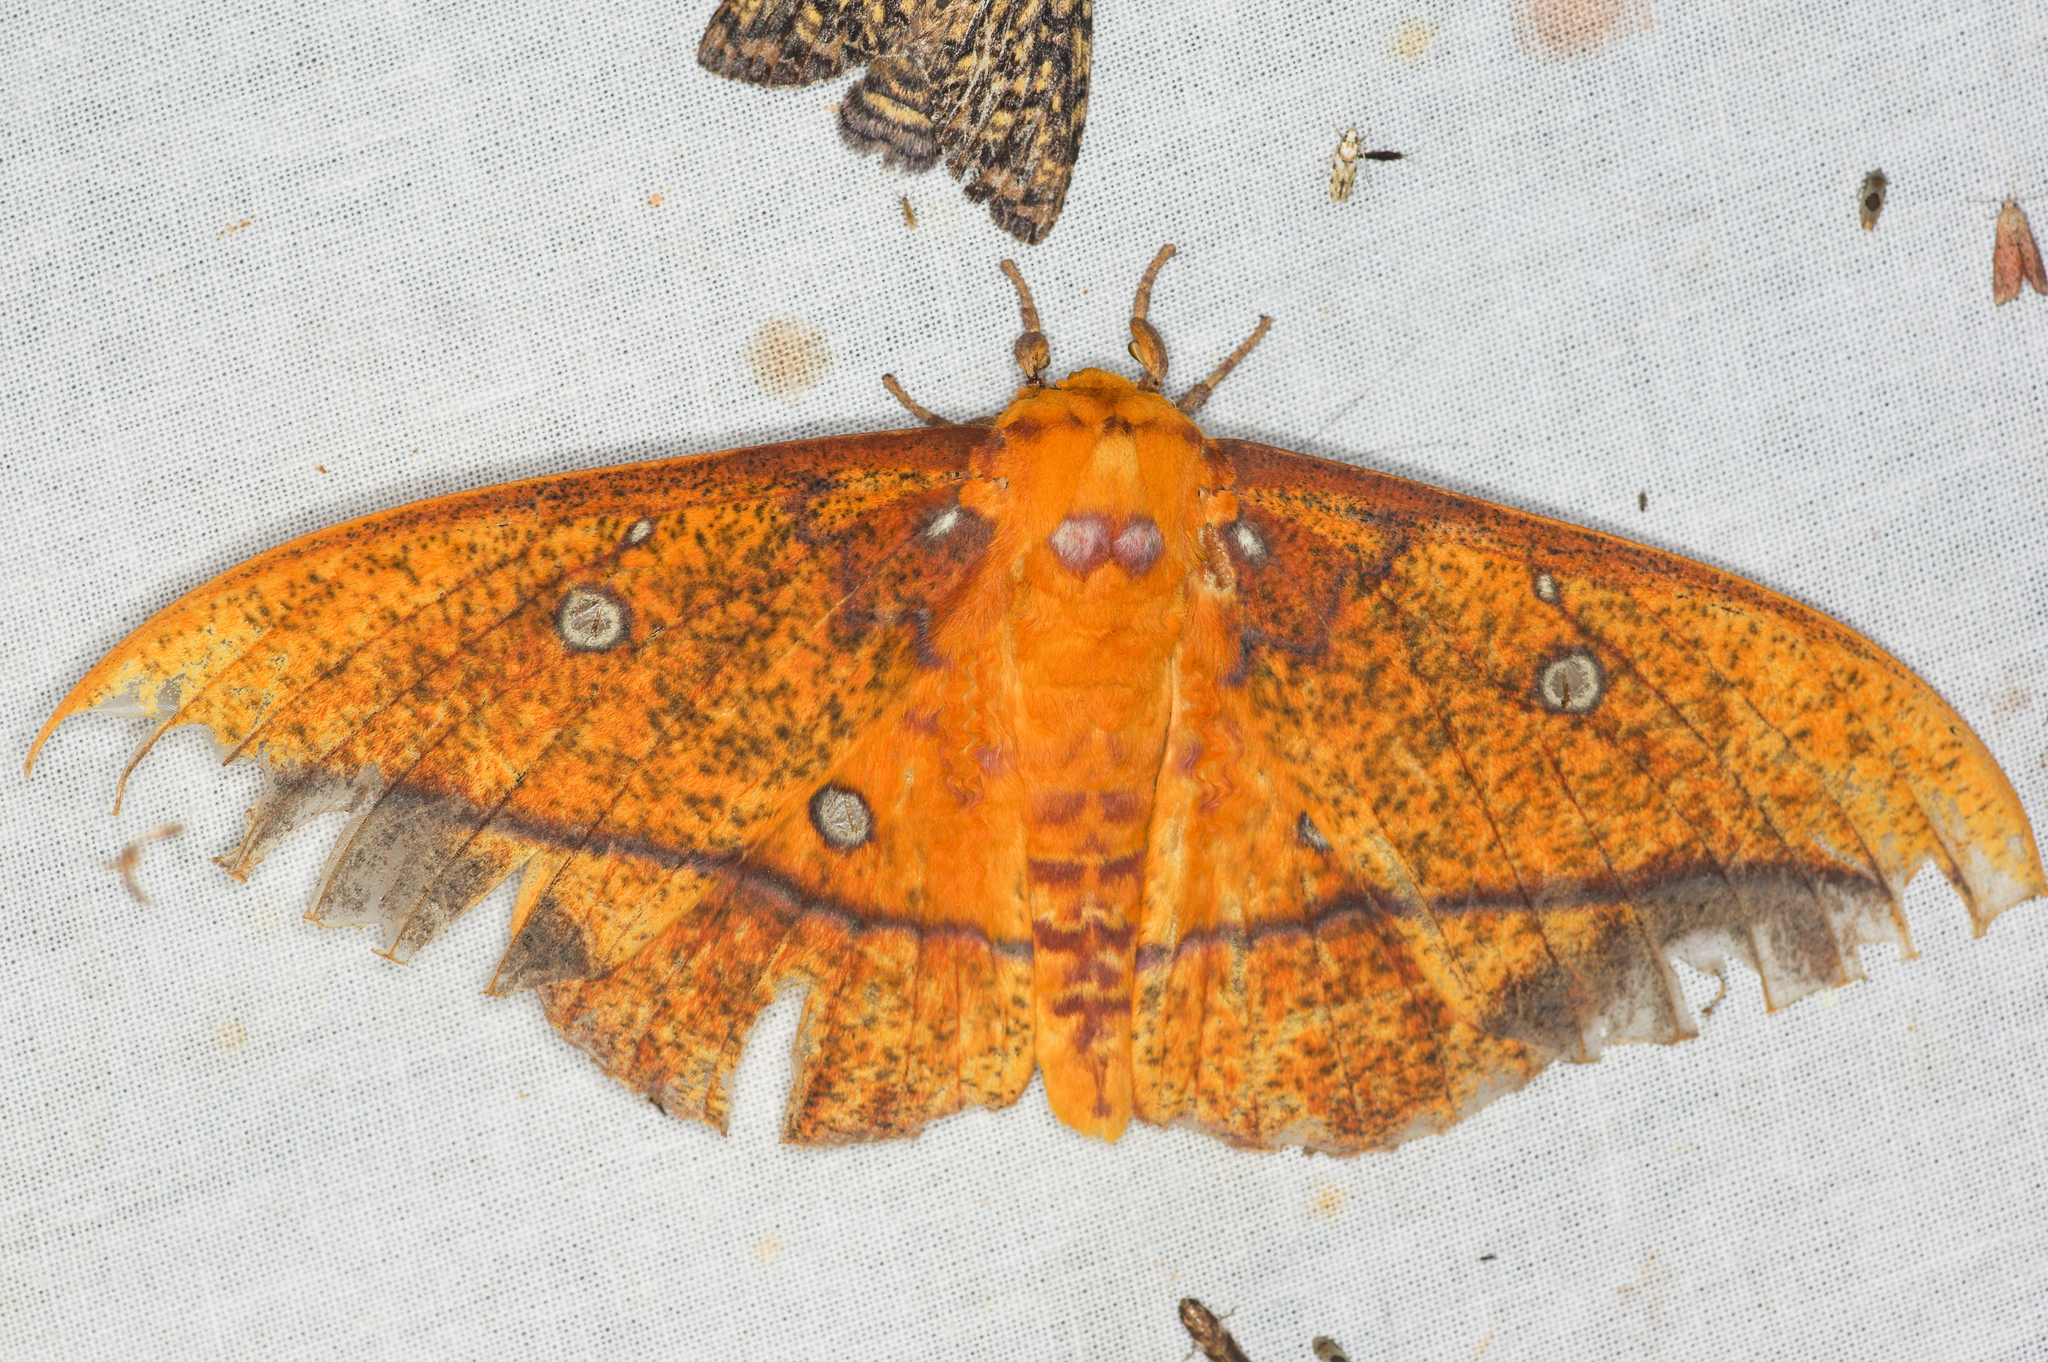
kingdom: Animalia
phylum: Arthropoda
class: Insecta
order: Lepidoptera
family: Saturniidae
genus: Eacles
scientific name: Eacles penelope
